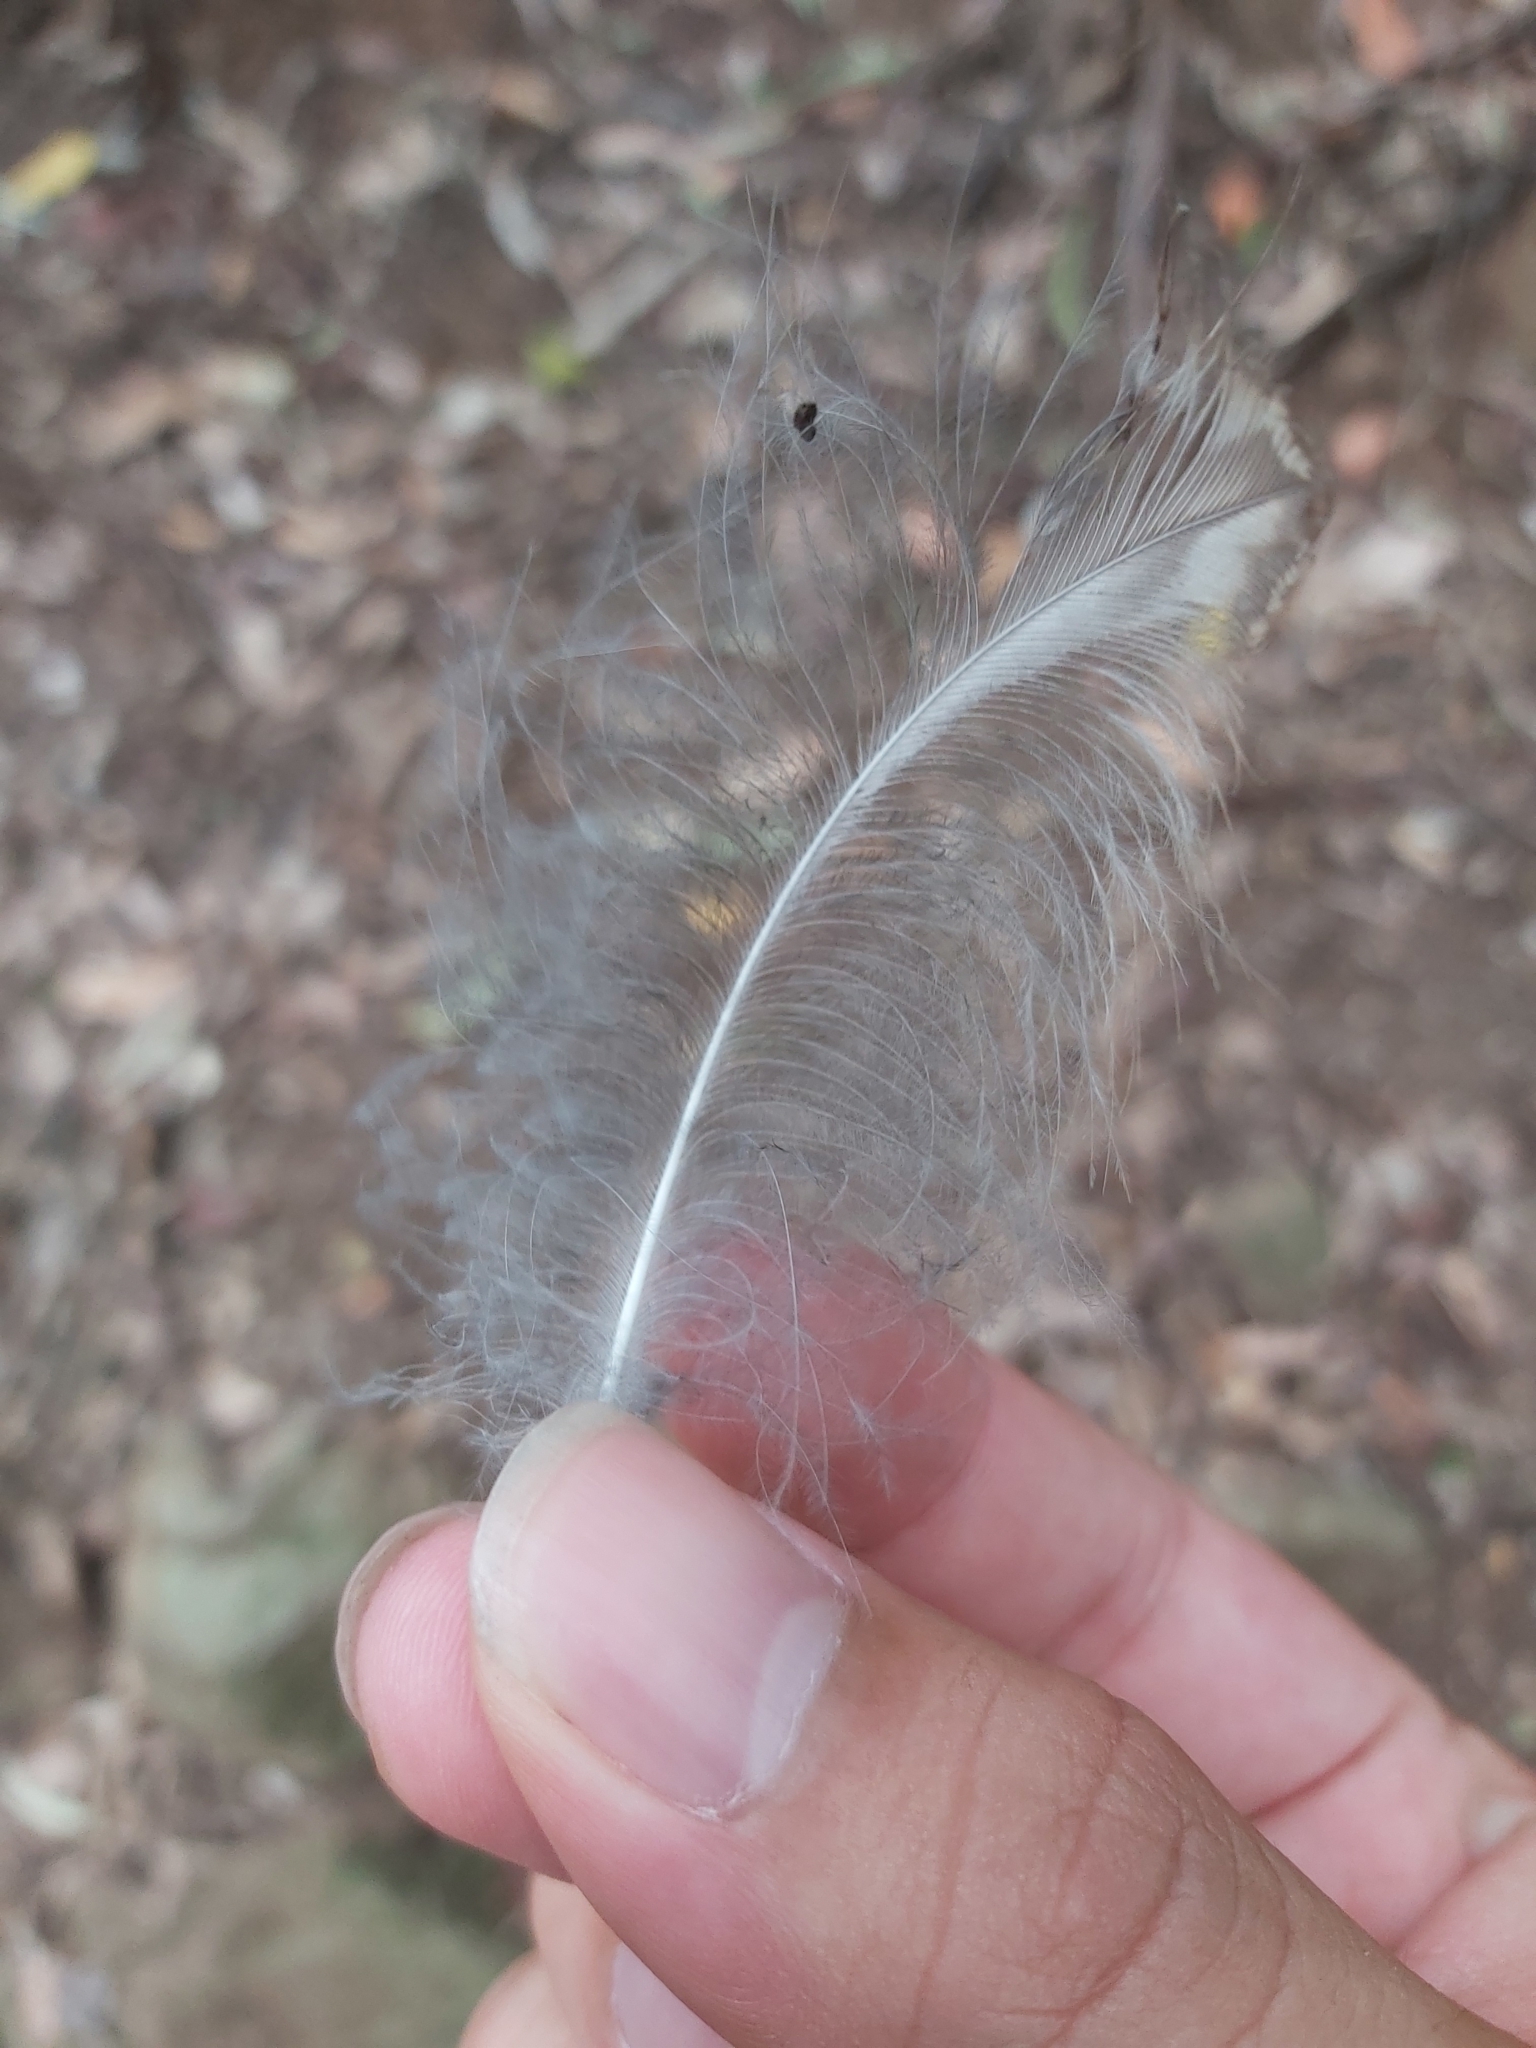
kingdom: Animalia
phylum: Chordata
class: Aves
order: Coraciiformes
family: Alcedinidae
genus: Dacelo
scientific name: Dacelo novaeguineae
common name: Laughing kookaburra
